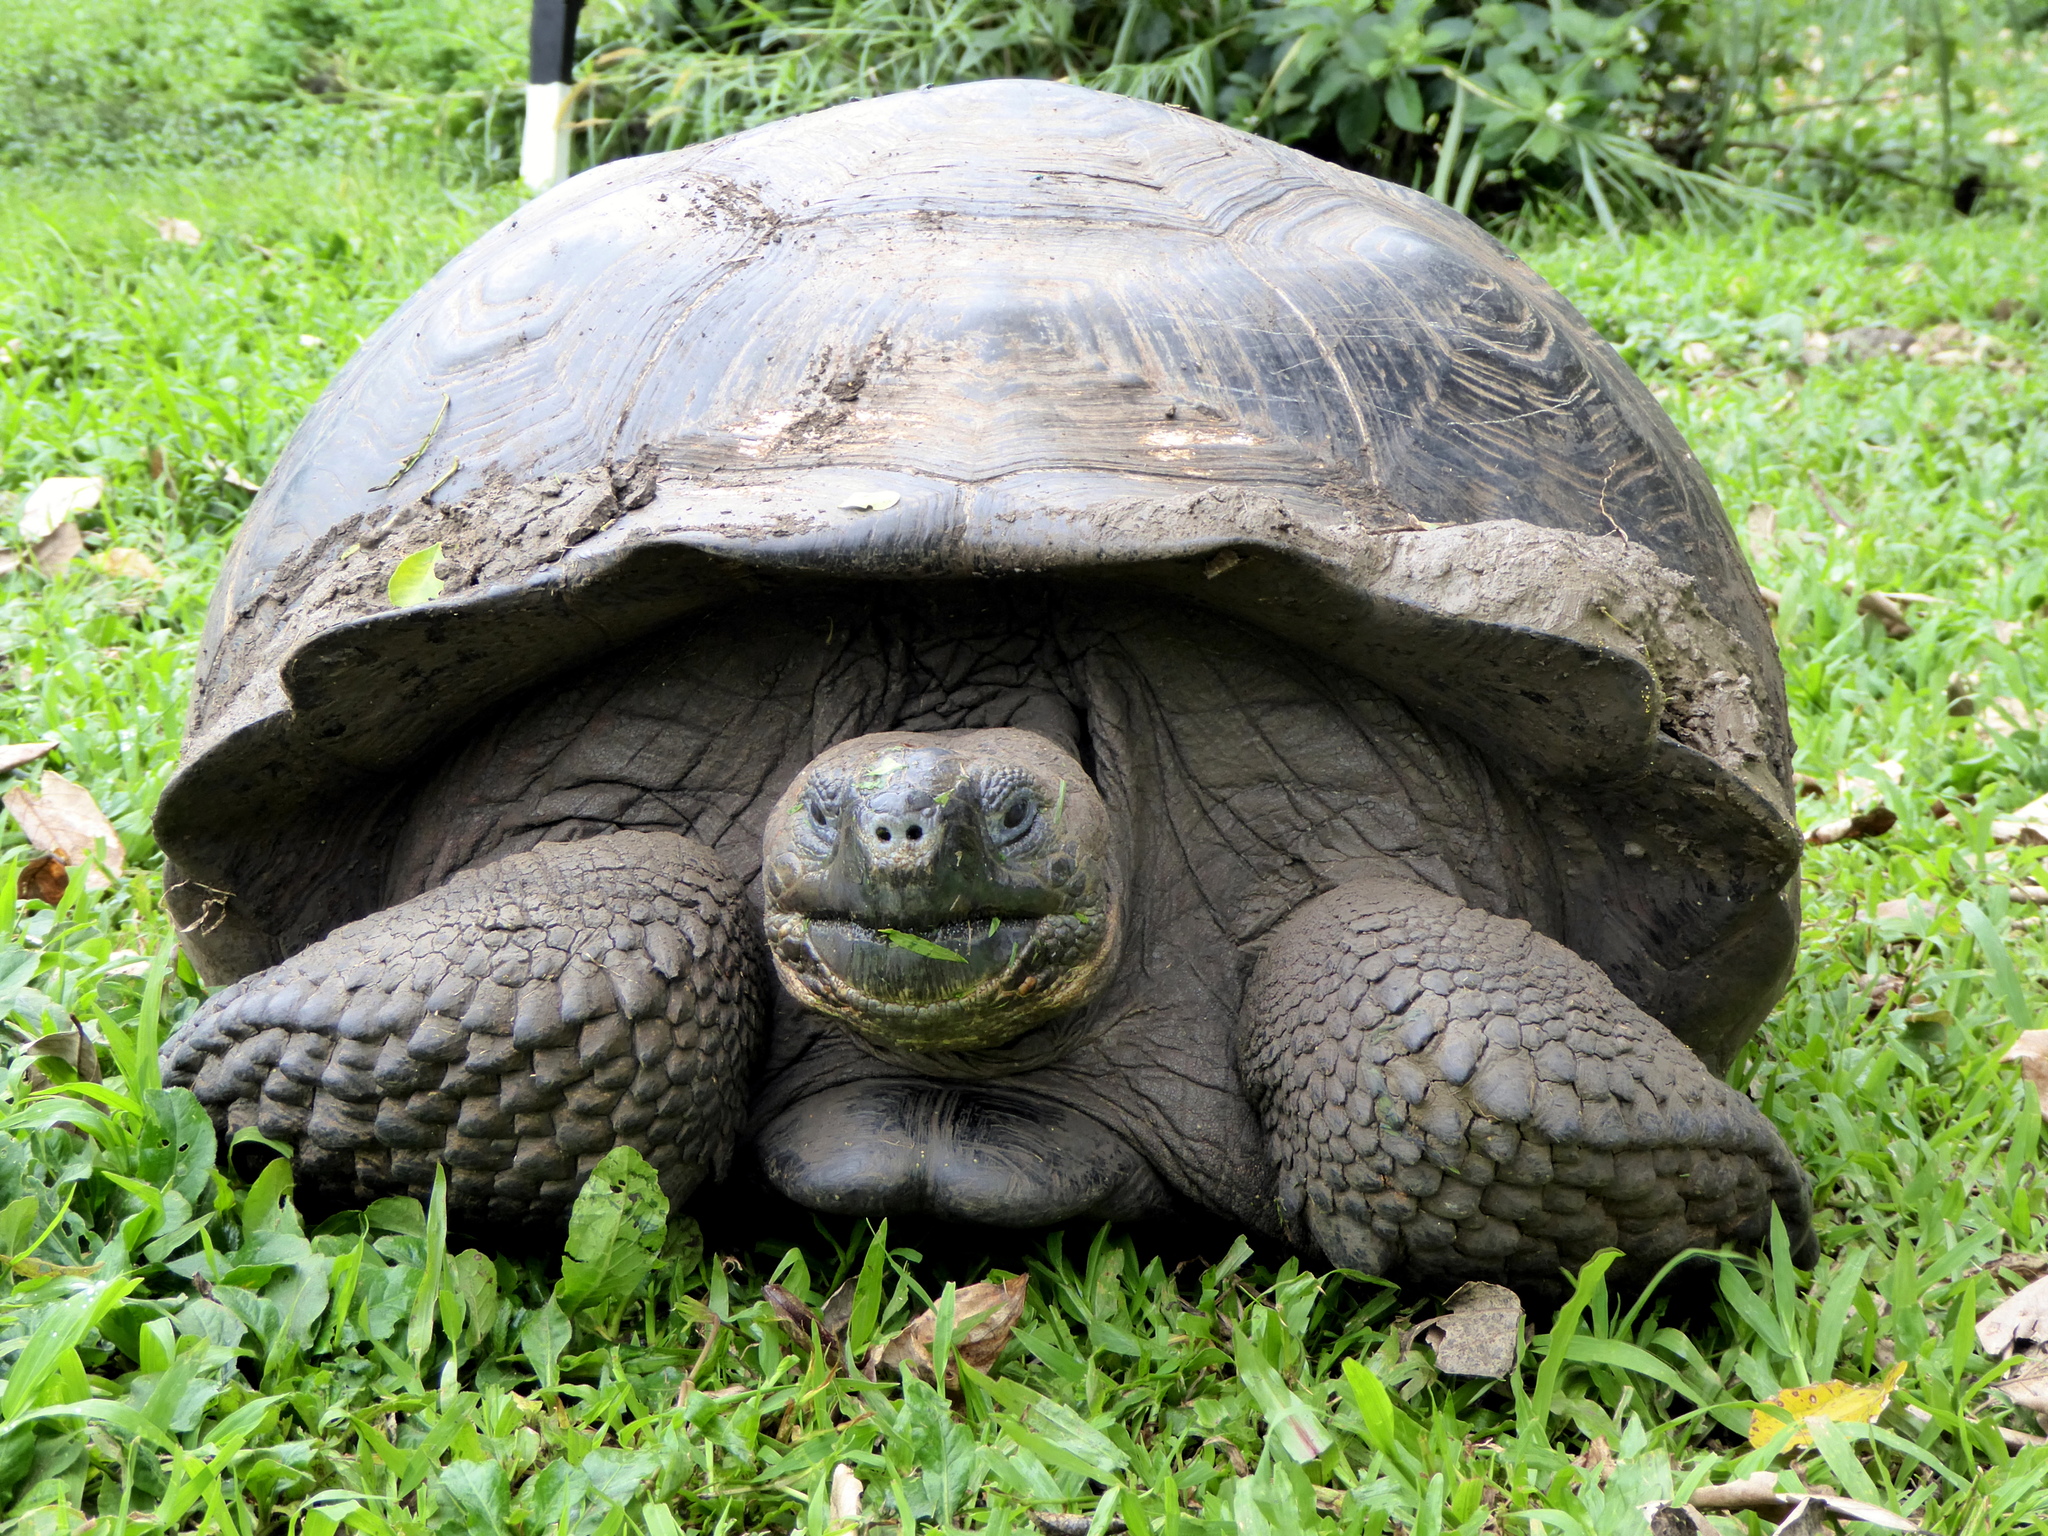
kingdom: Animalia
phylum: Chordata
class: Testudines
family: Testudinidae
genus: Chelonoidis
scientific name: Chelonoidis porteri
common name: Indefatigable island giant tortoise
